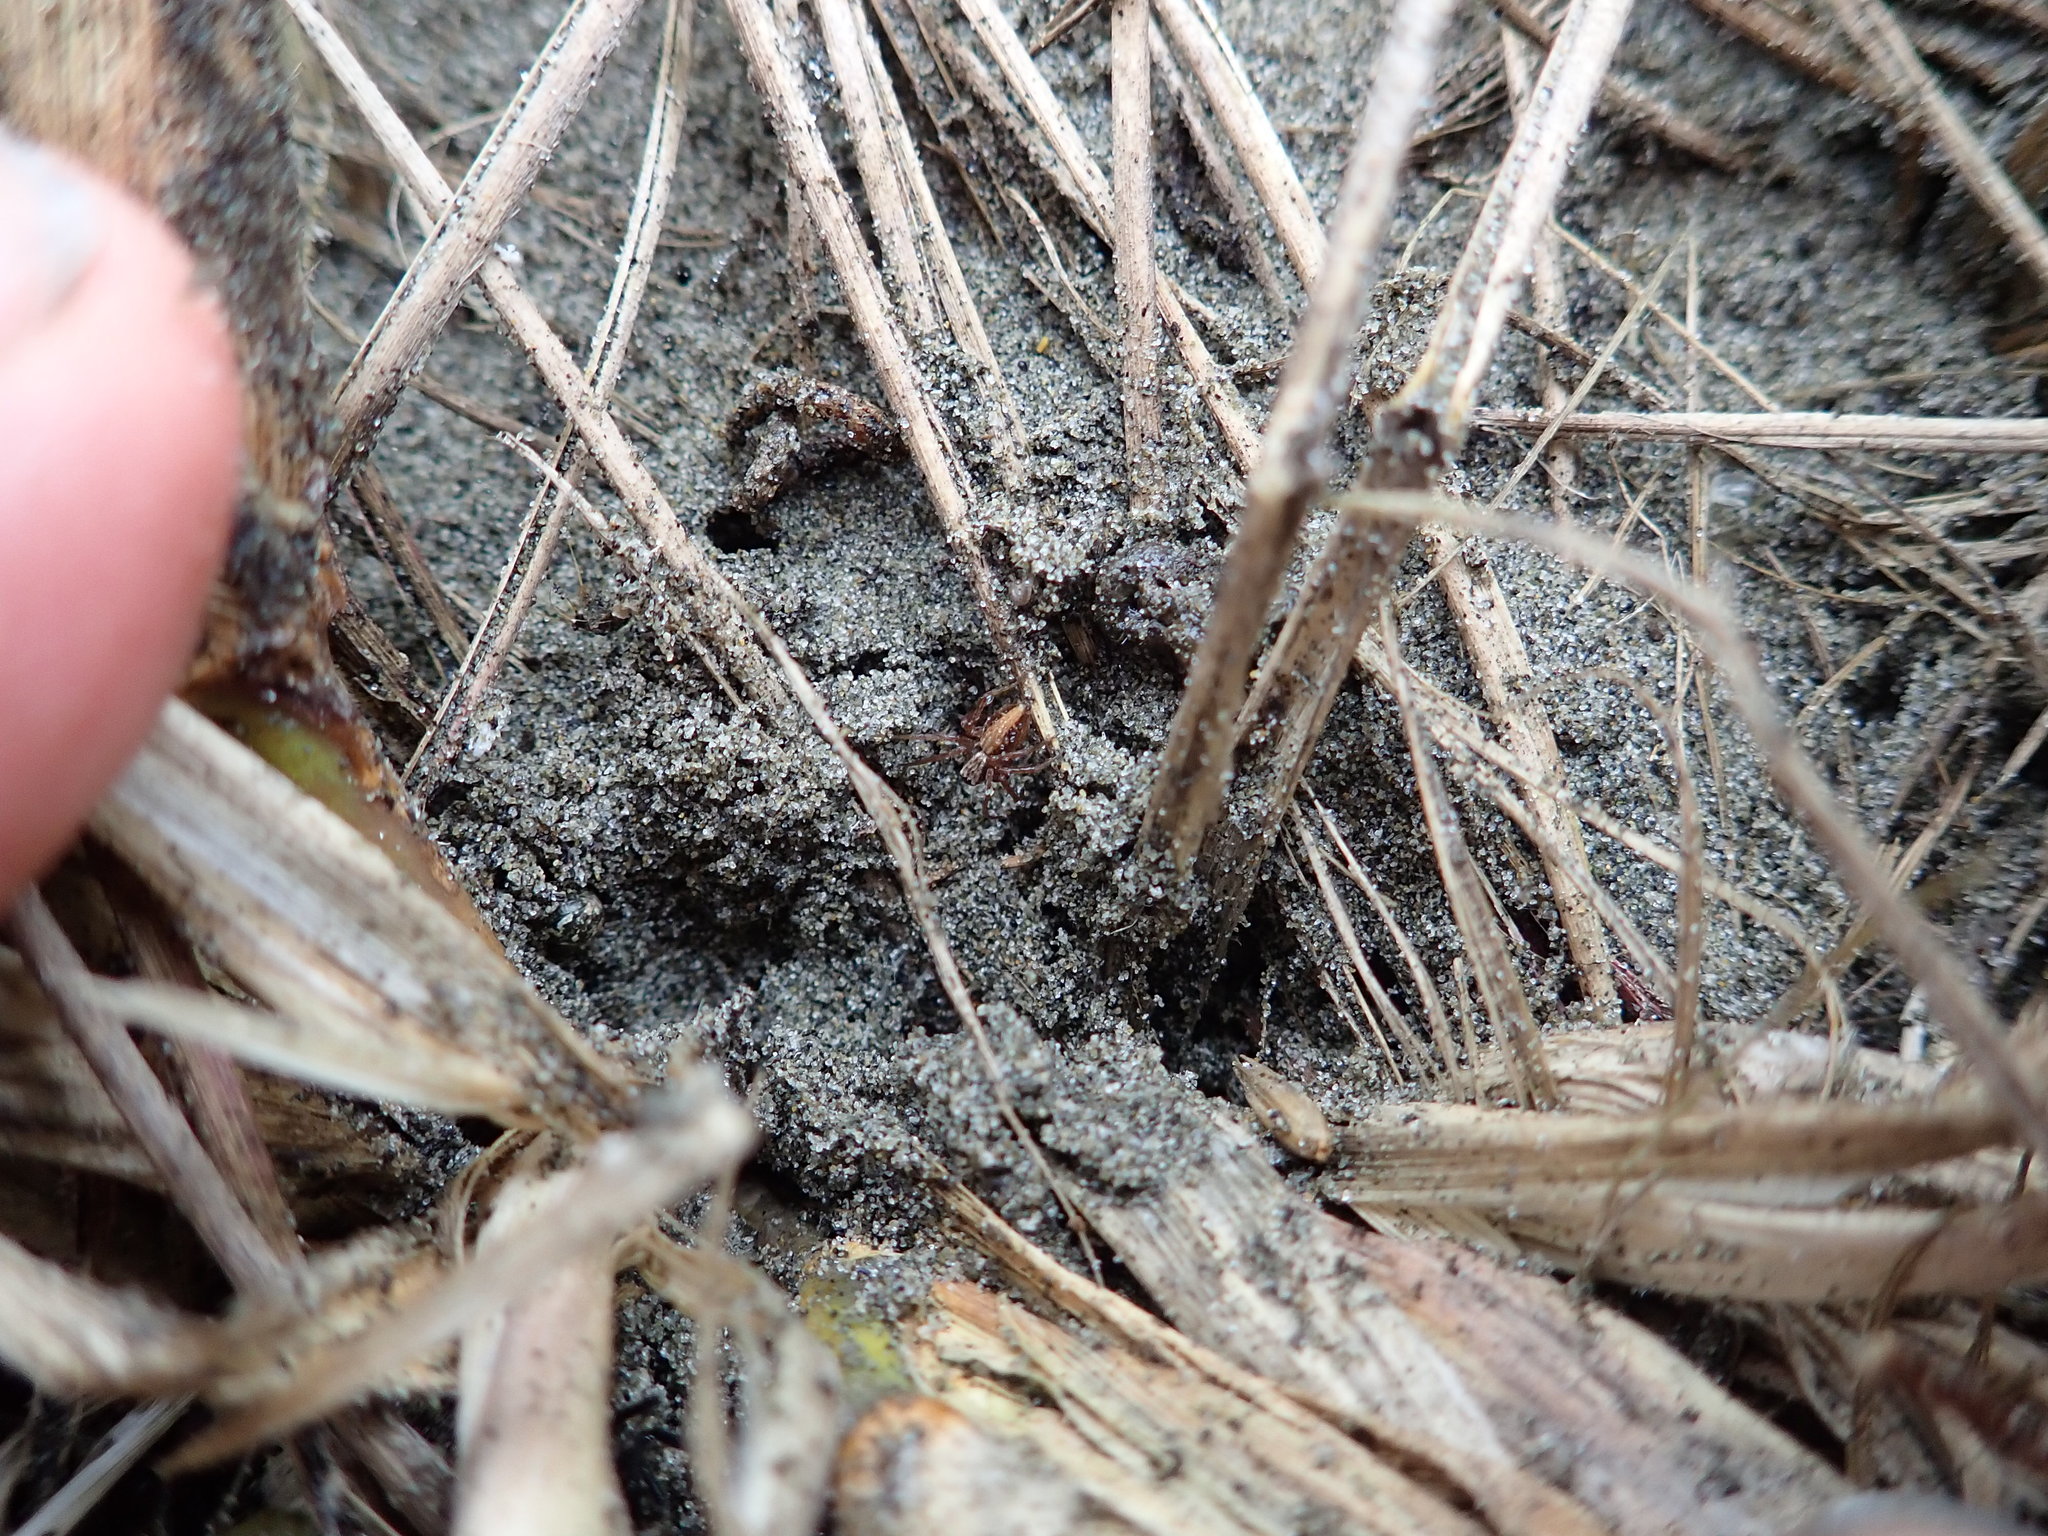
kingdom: Animalia
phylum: Arthropoda
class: Arachnida
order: Araneae
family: Oxyopidae
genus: Oxyopes
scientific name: Oxyopes gracilipes
